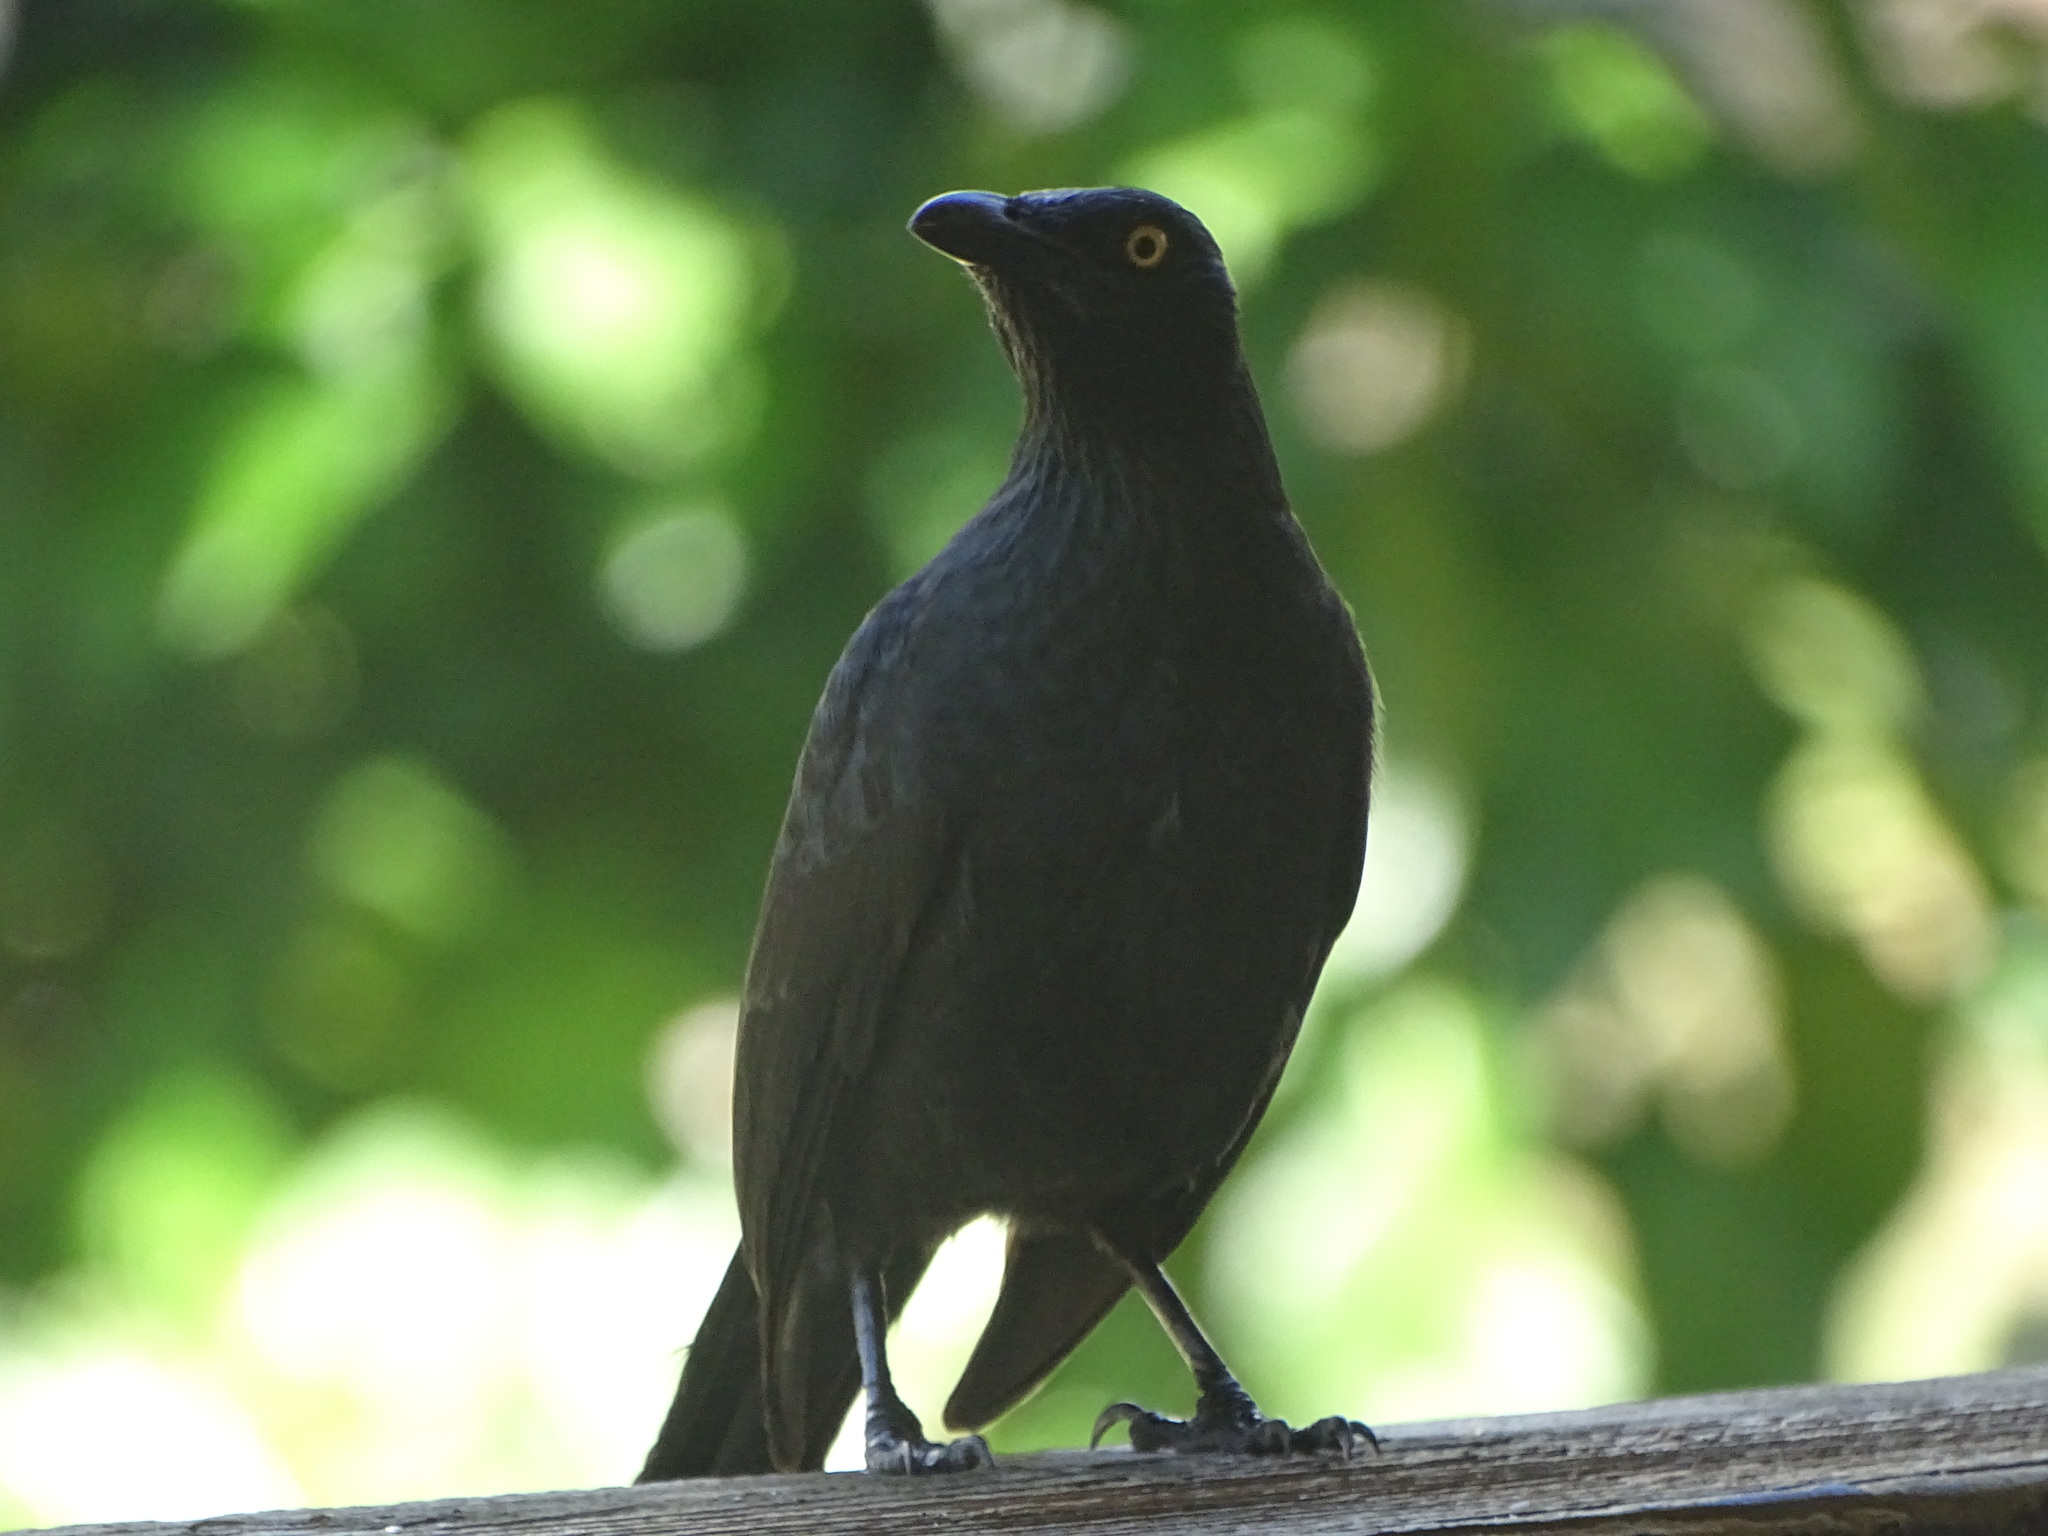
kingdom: Animalia
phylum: Chordata
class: Aves
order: Passeriformes
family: Sturnidae
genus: Aplonis
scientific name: Aplonis opaca
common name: Micronesian starling
